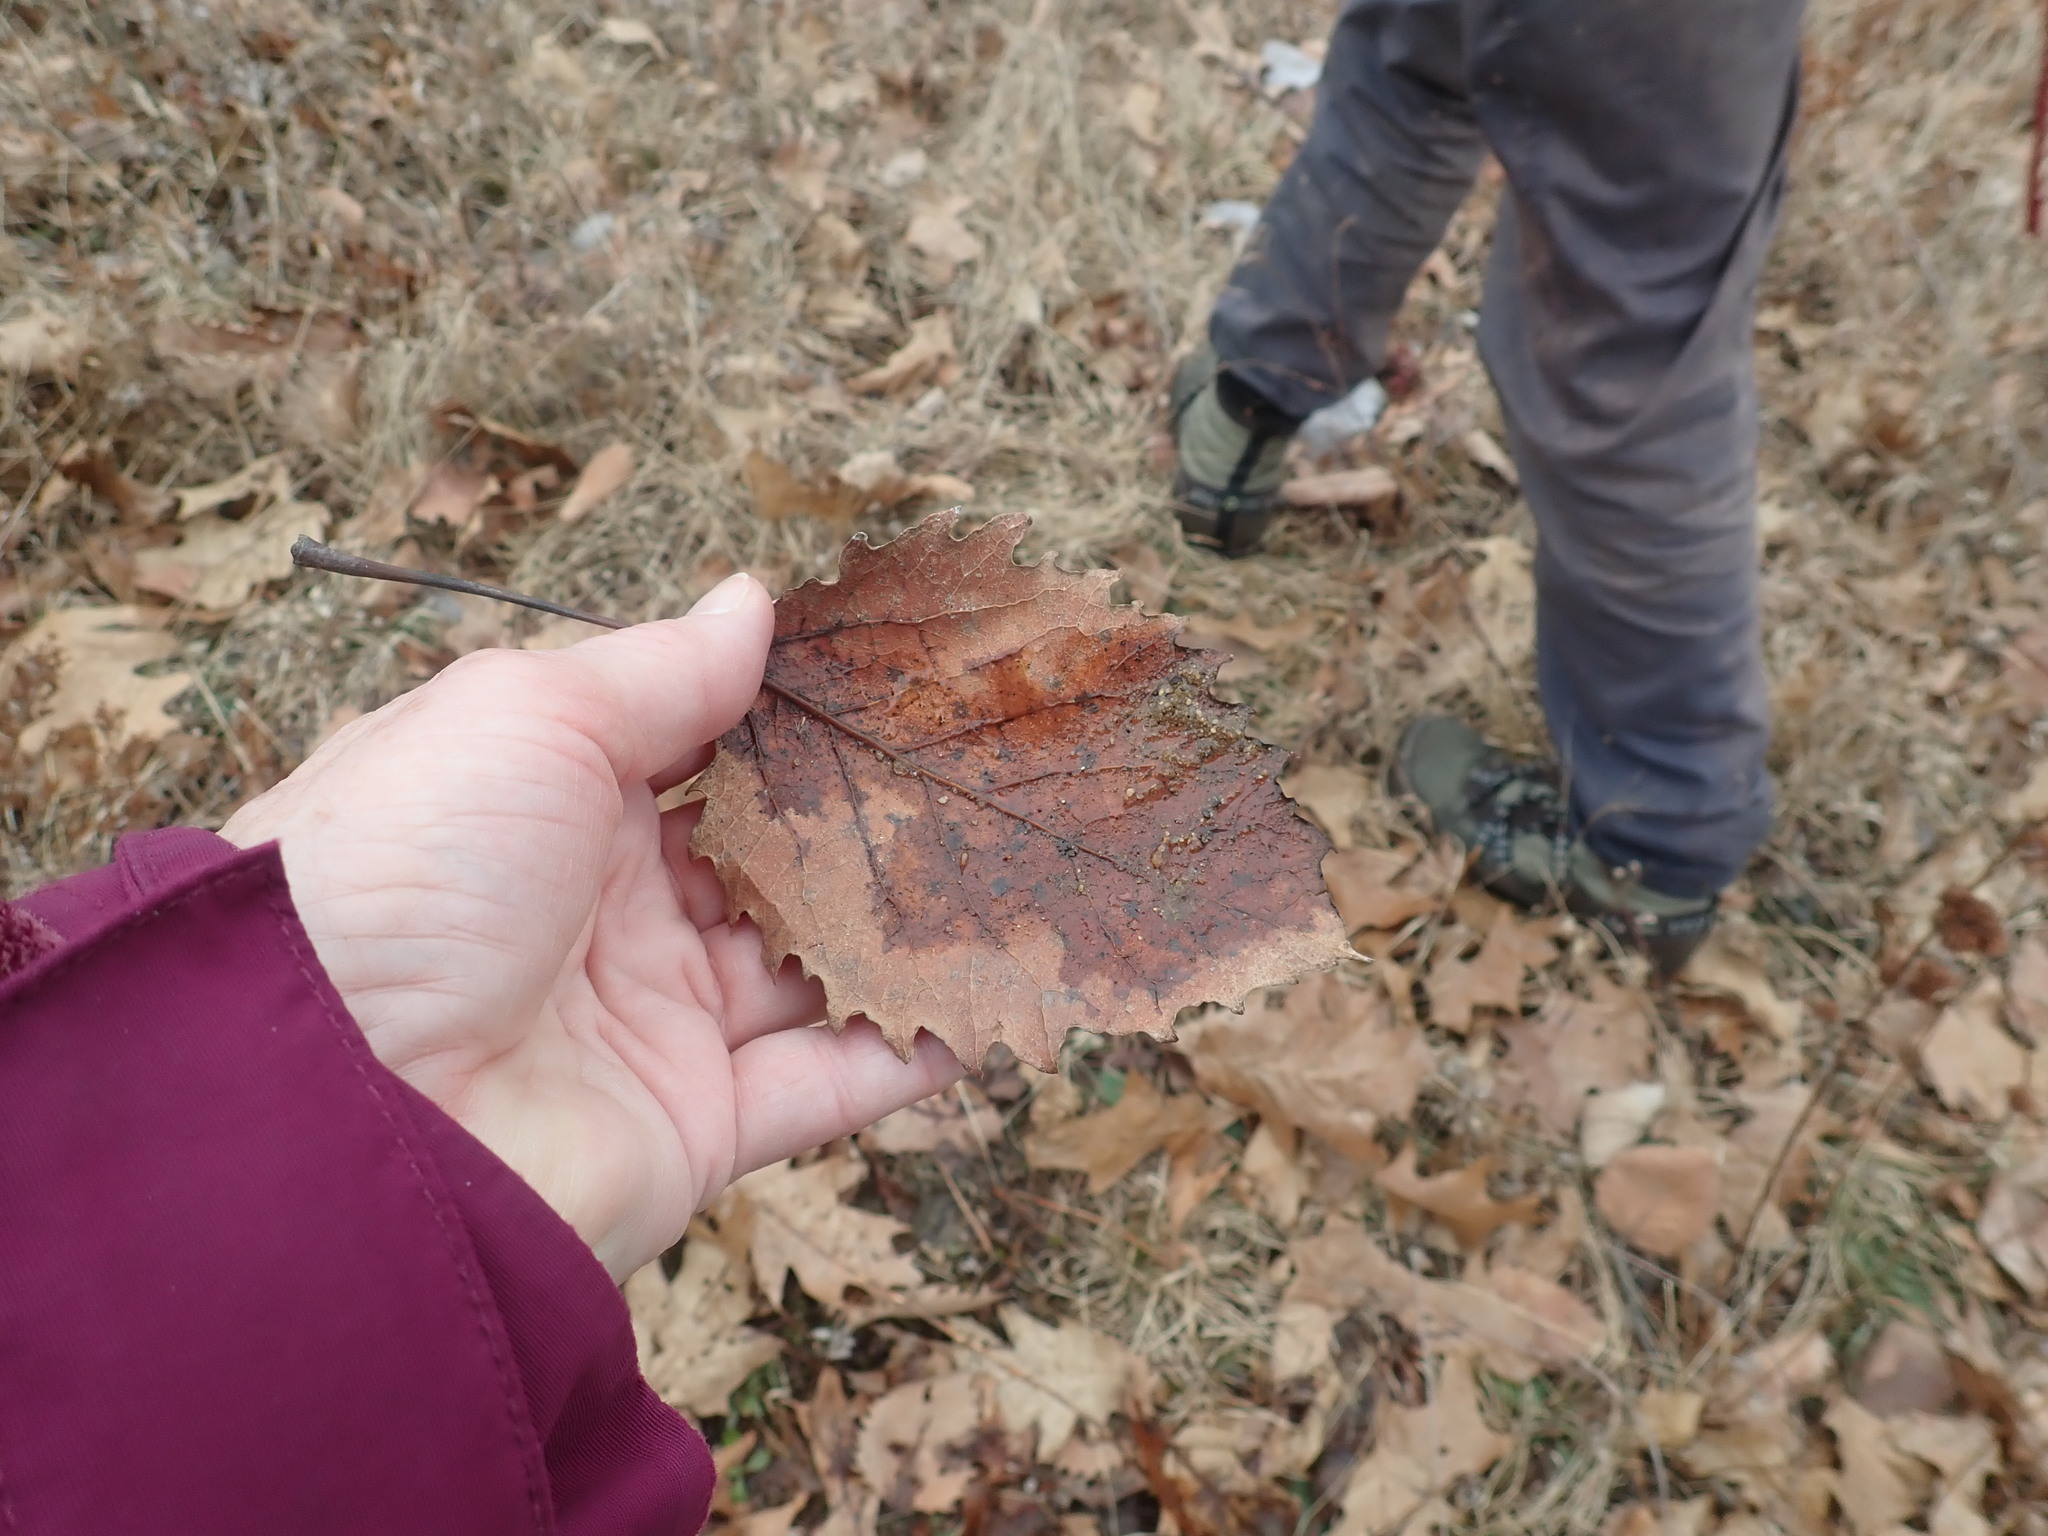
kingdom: Plantae
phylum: Tracheophyta
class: Magnoliopsida
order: Malpighiales
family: Salicaceae
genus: Populus
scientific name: Populus grandidentata
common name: Bigtooth aspen
